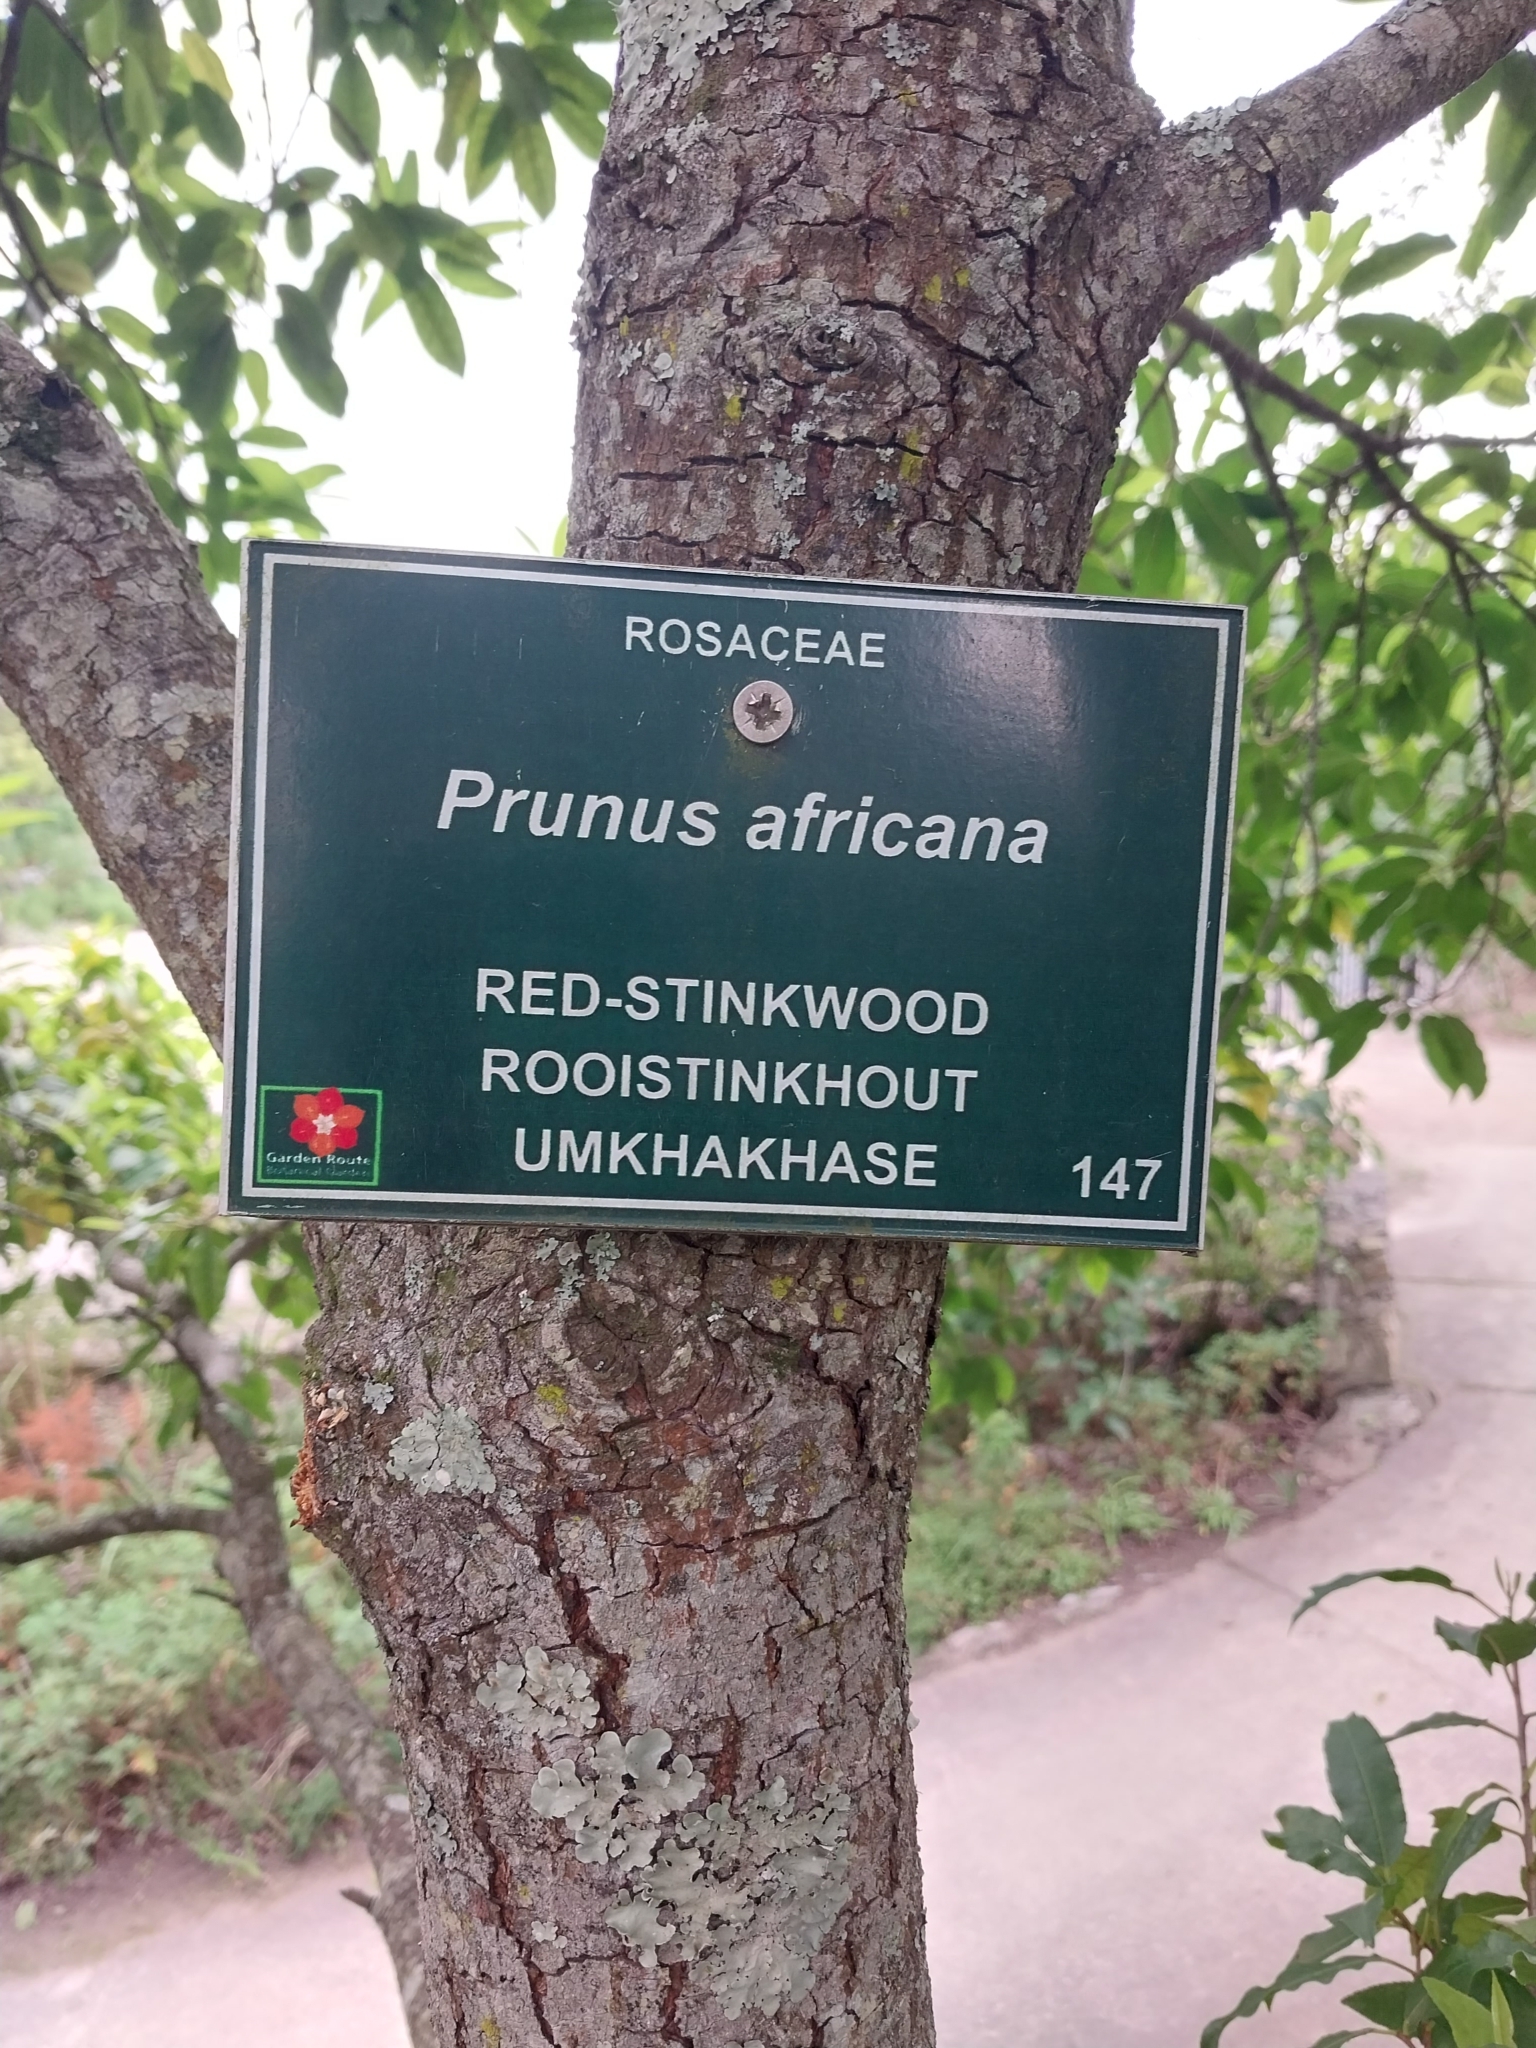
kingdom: Plantae
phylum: Tracheophyta
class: Magnoliopsida
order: Rosales
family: Rosaceae
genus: Prunus
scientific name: Prunus africana
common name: African cherry
